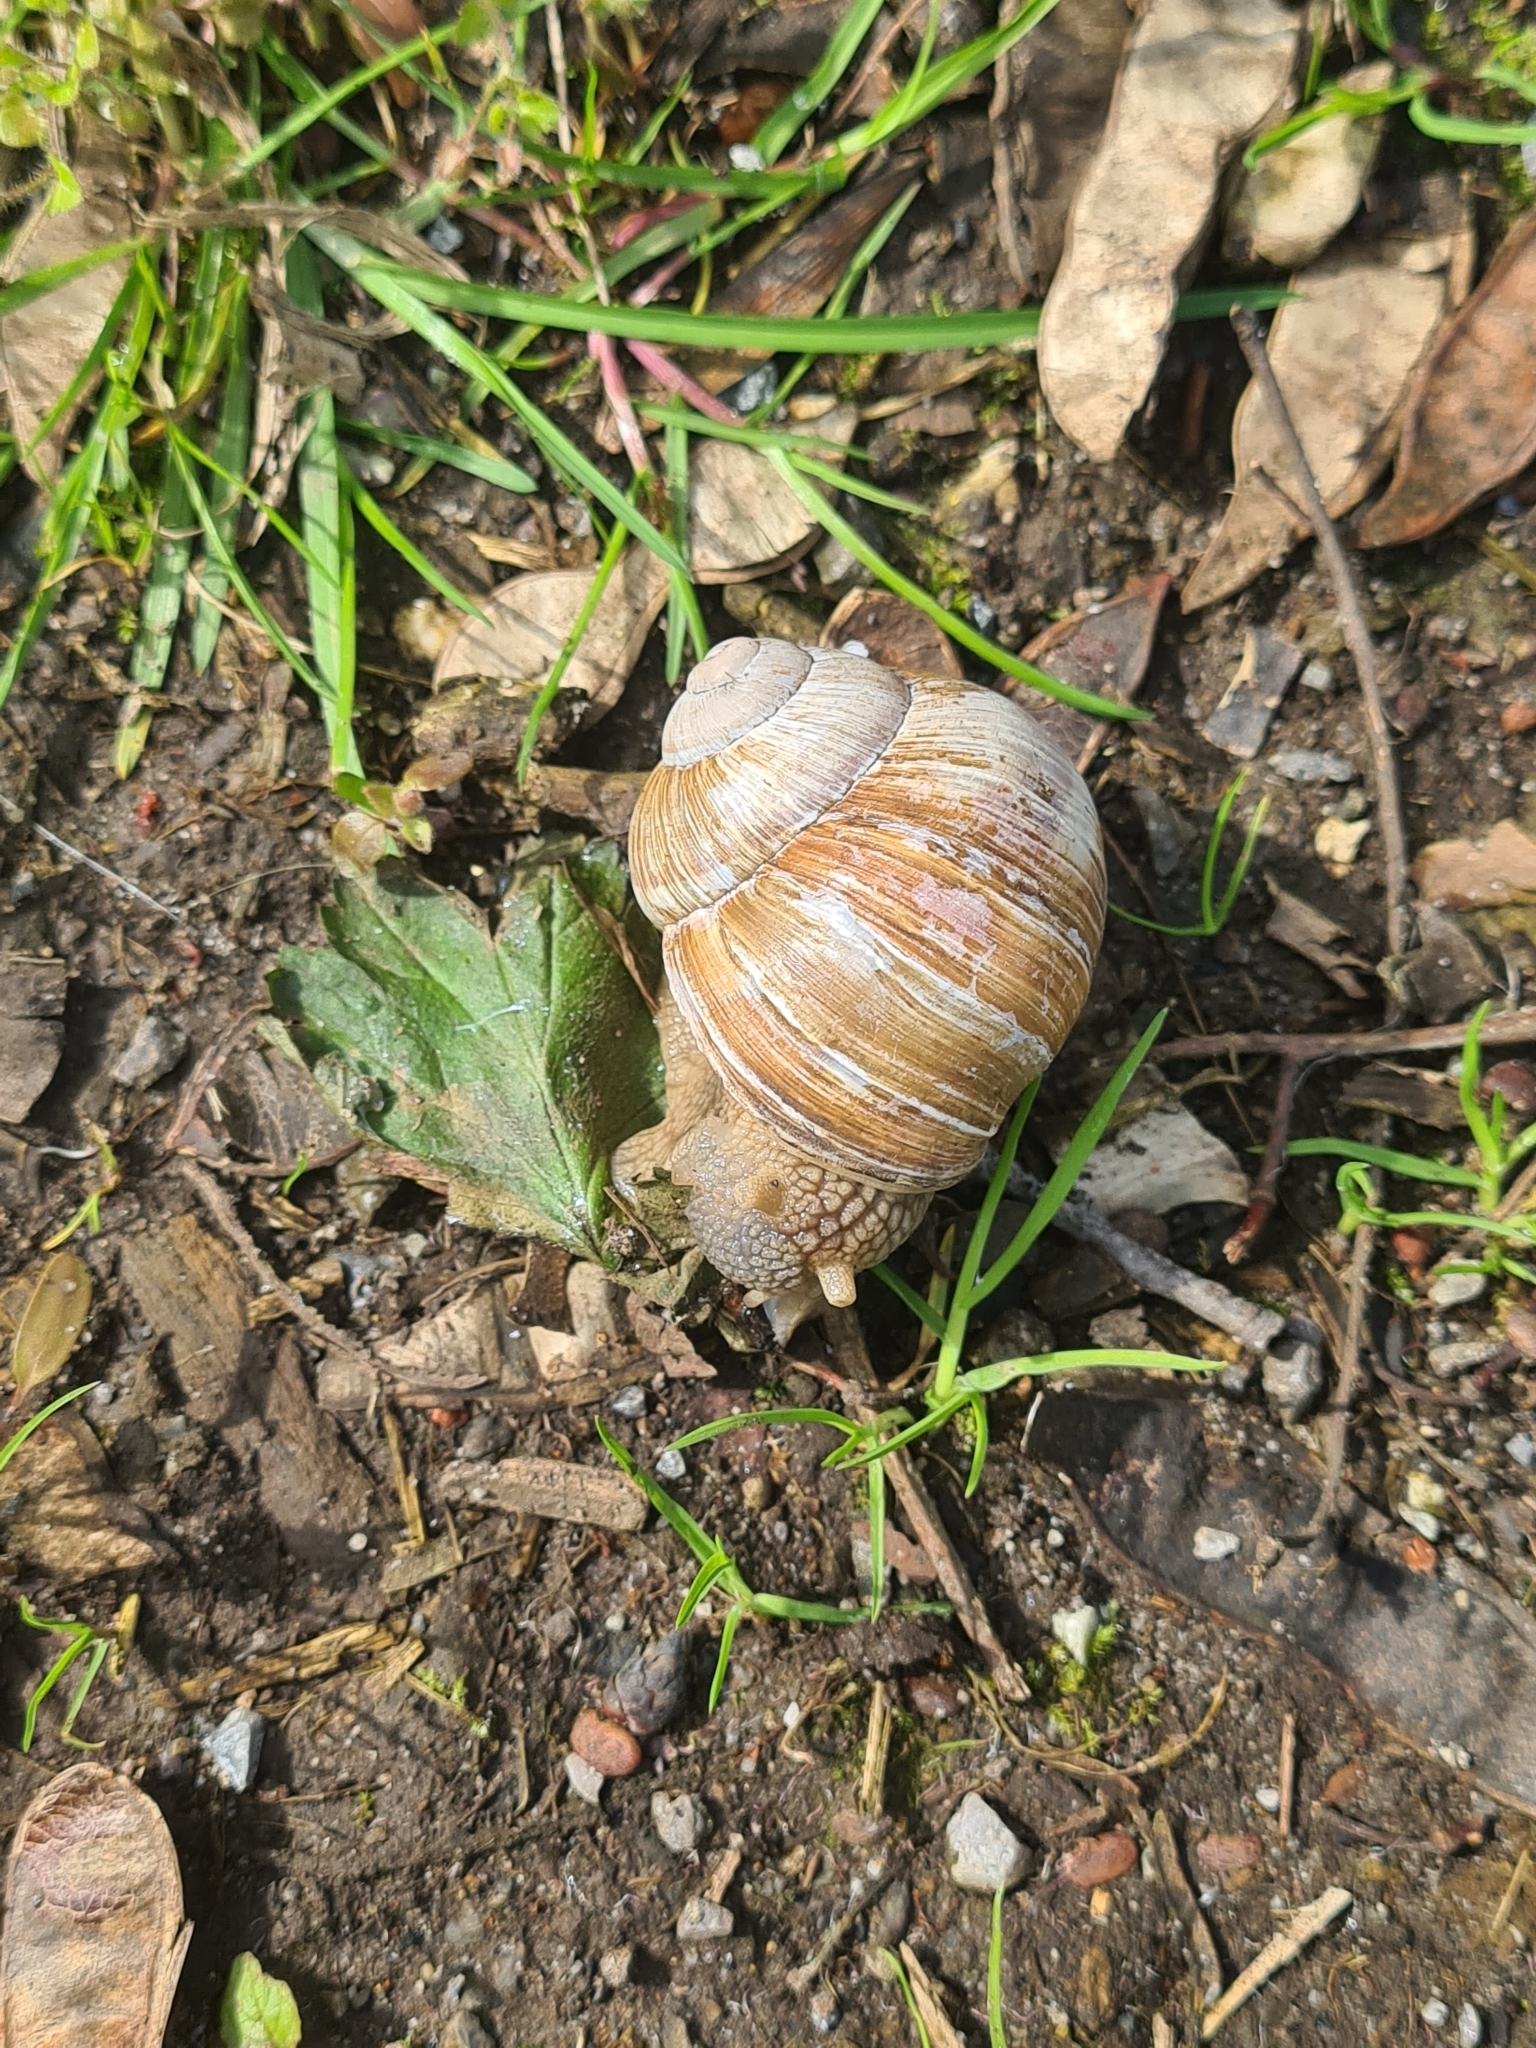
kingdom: Animalia
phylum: Mollusca
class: Gastropoda
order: Stylommatophora
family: Helicidae
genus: Helix
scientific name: Helix pomatia
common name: Roman snail
